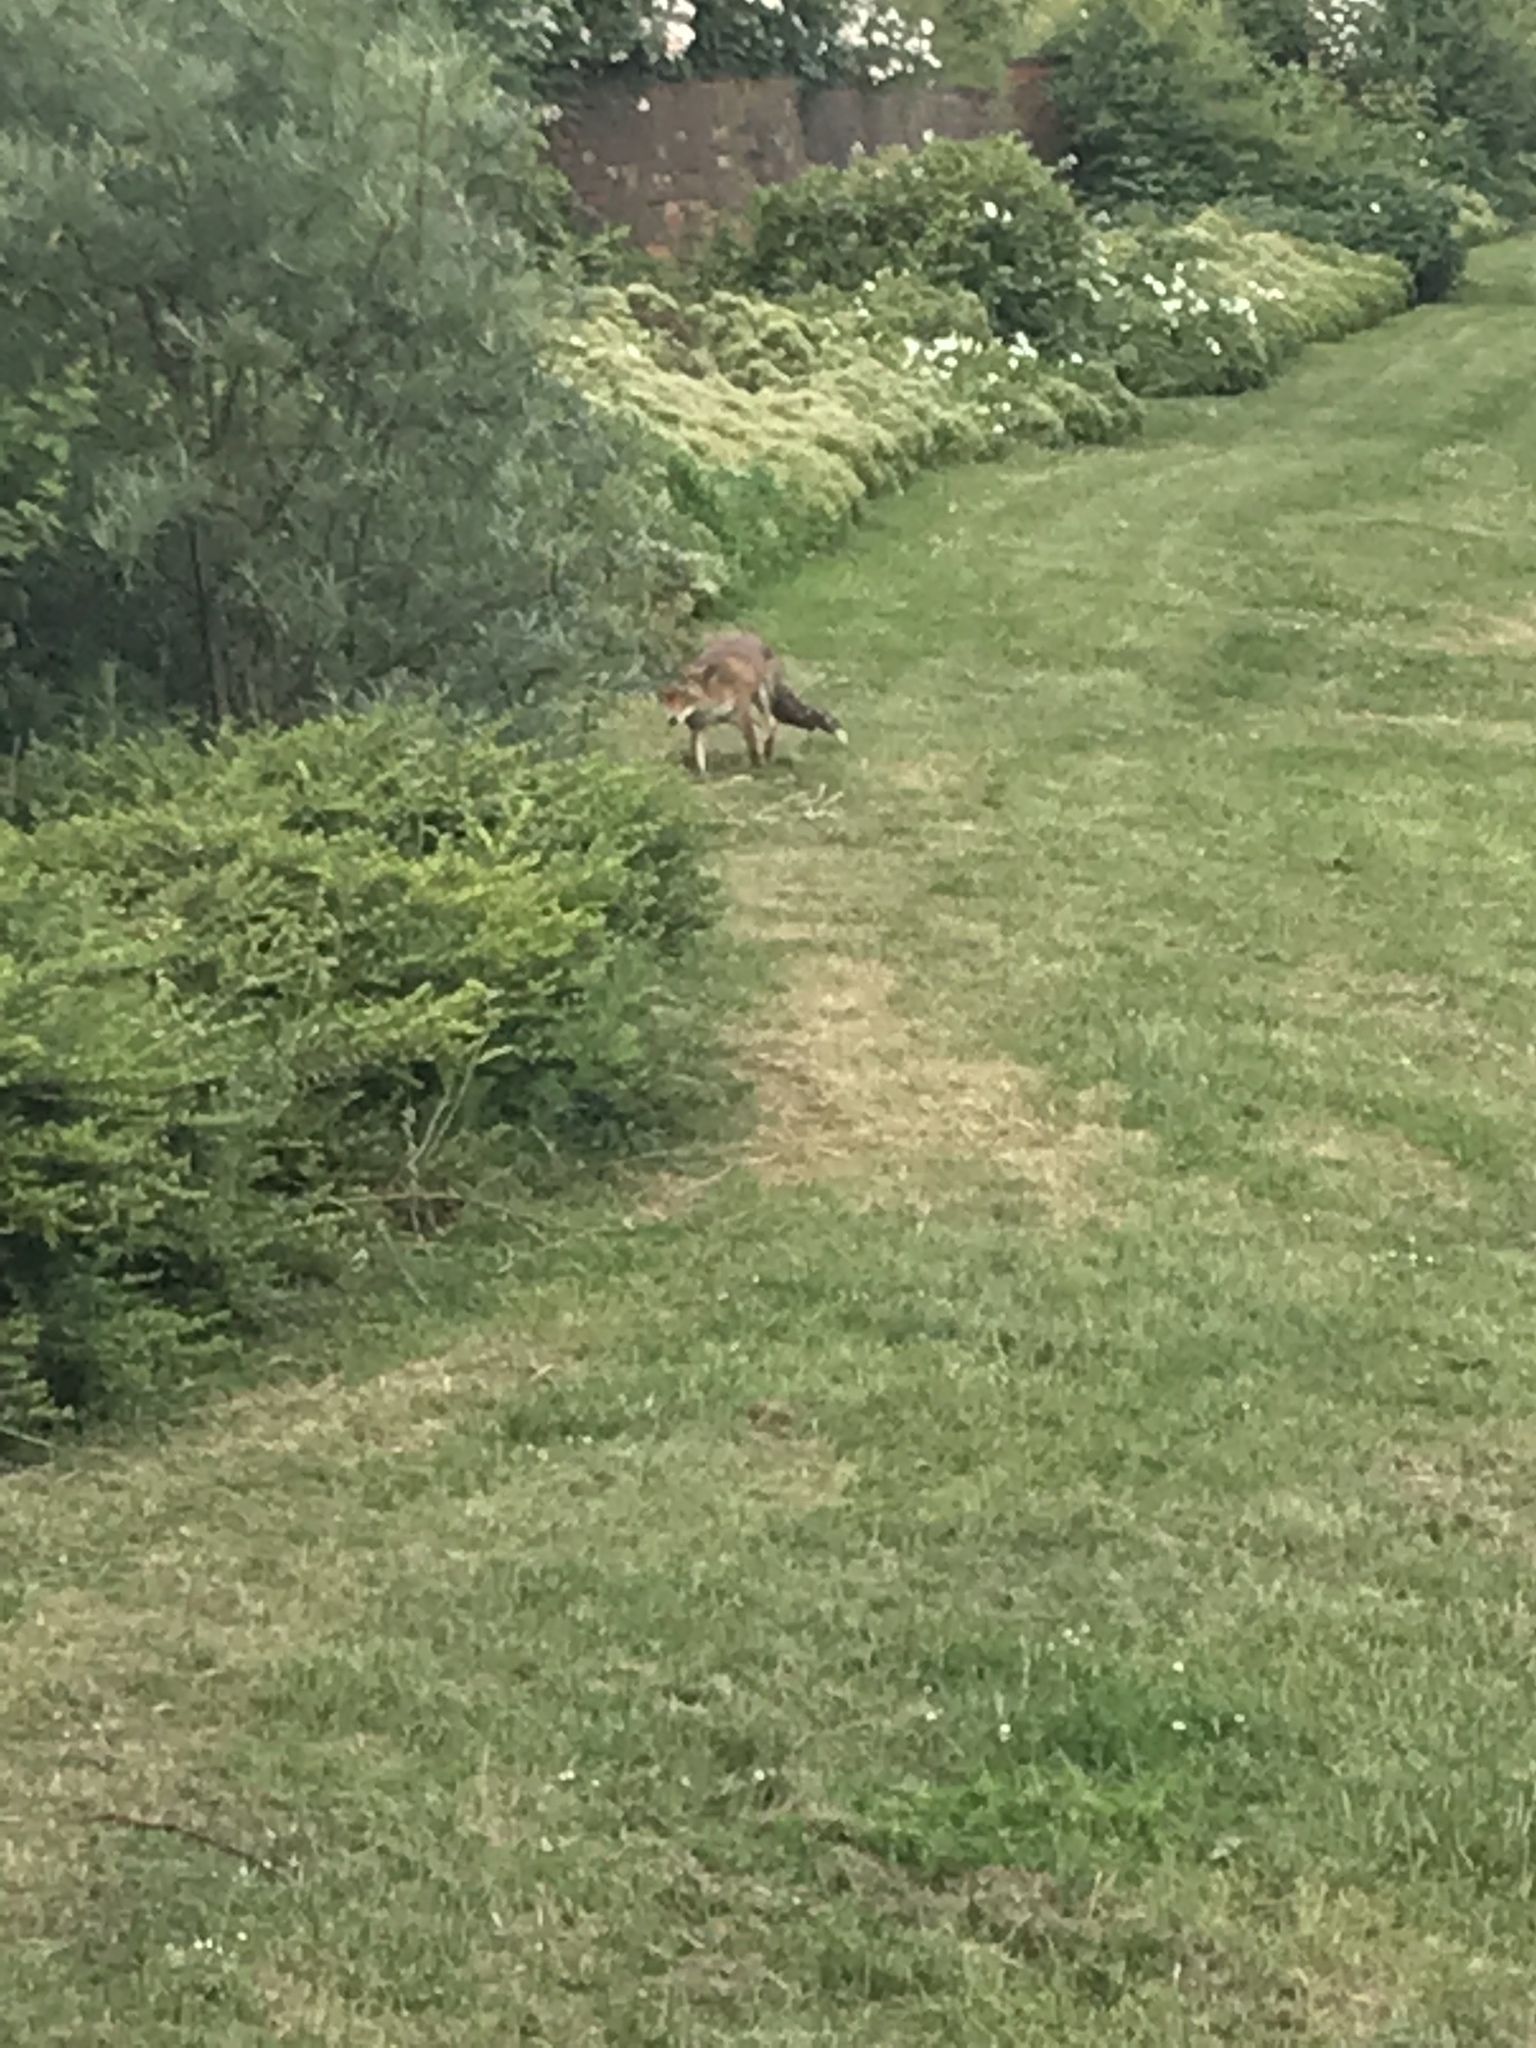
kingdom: Animalia
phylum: Chordata
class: Mammalia
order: Carnivora
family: Canidae
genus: Vulpes
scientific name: Vulpes vulpes
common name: Red fox
